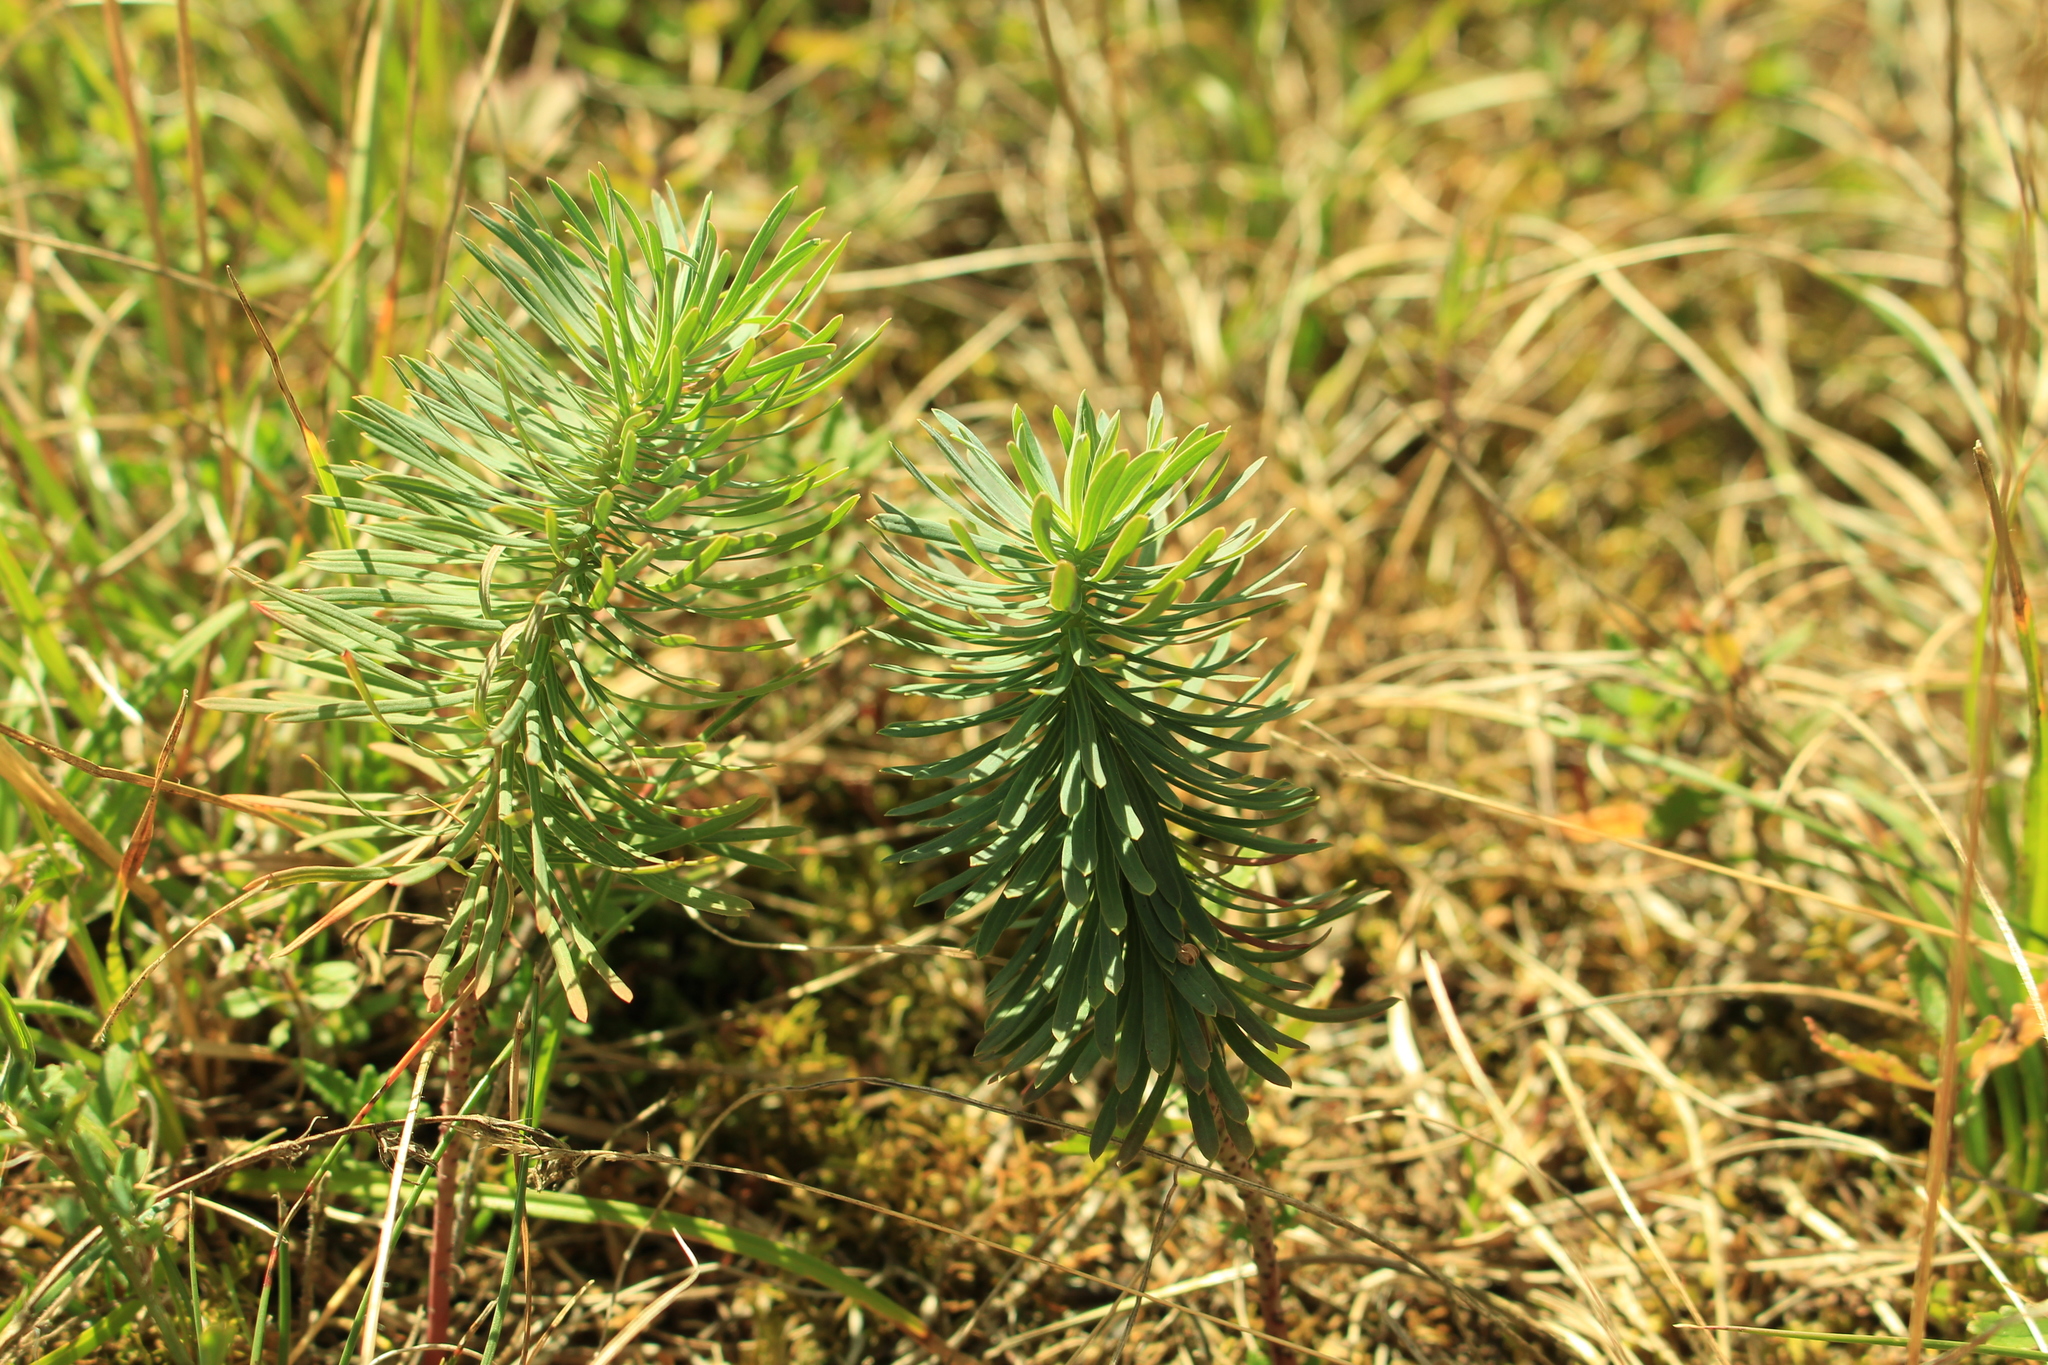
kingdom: Plantae
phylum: Tracheophyta
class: Magnoliopsida
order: Malpighiales
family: Euphorbiaceae
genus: Euphorbia
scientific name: Euphorbia cyparissias
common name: Cypress spurge
